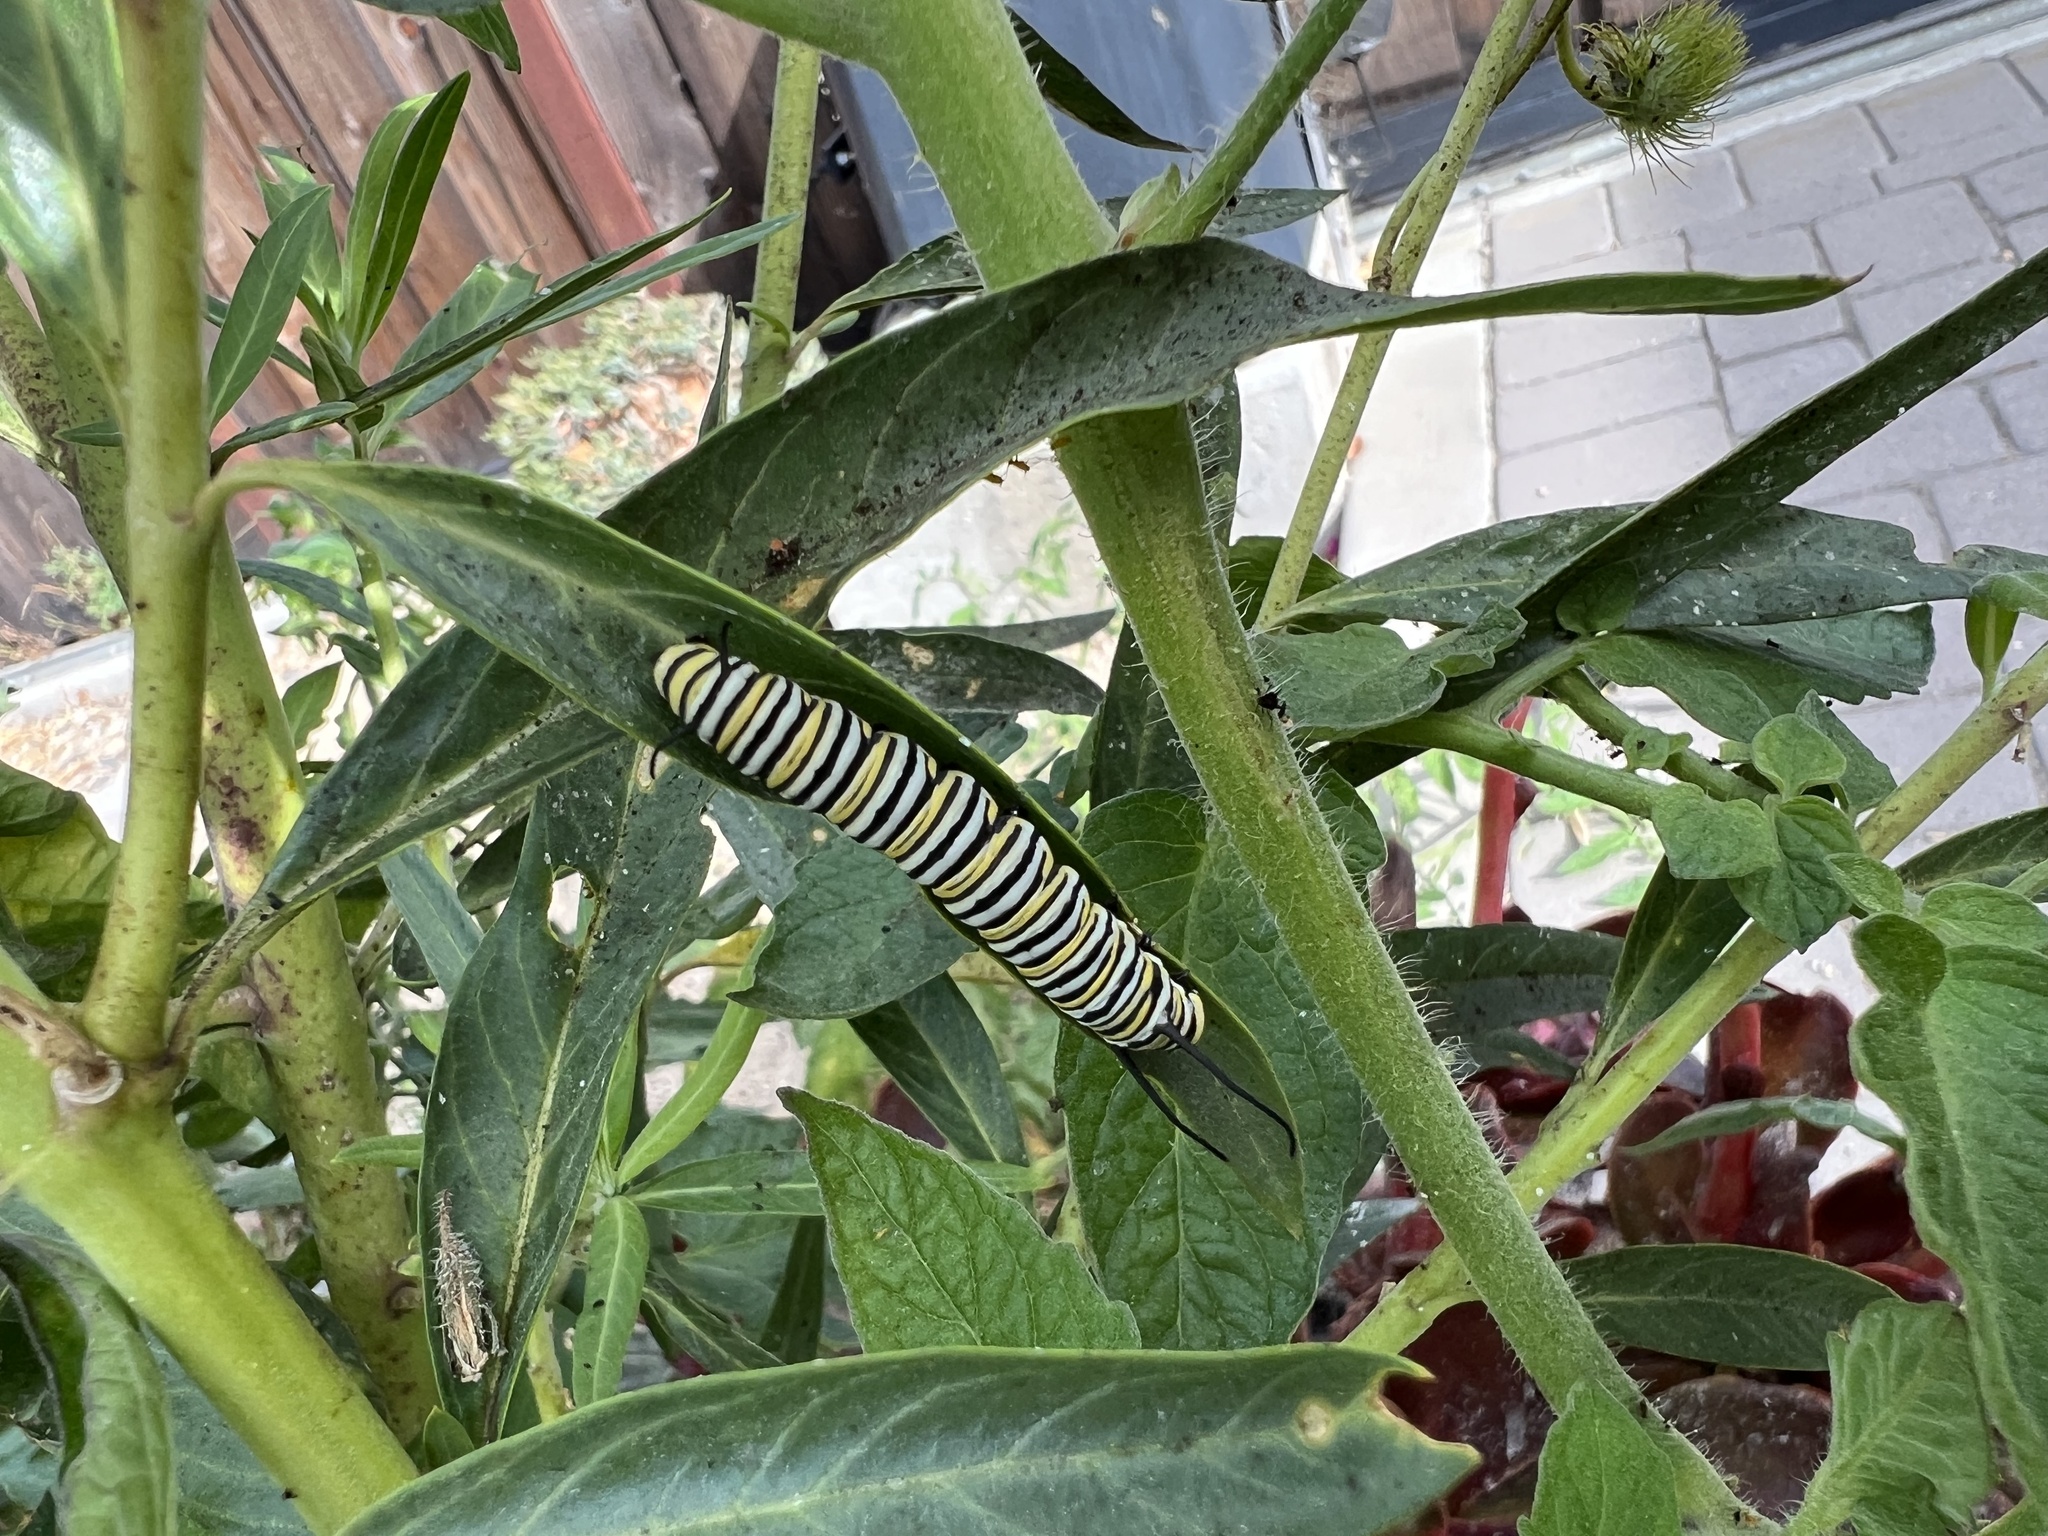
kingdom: Animalia
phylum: Arthropoda
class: Insecta
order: Lepidoptera
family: Nymphalidae
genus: Danaus
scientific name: Danaus plexippus
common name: Monarch
